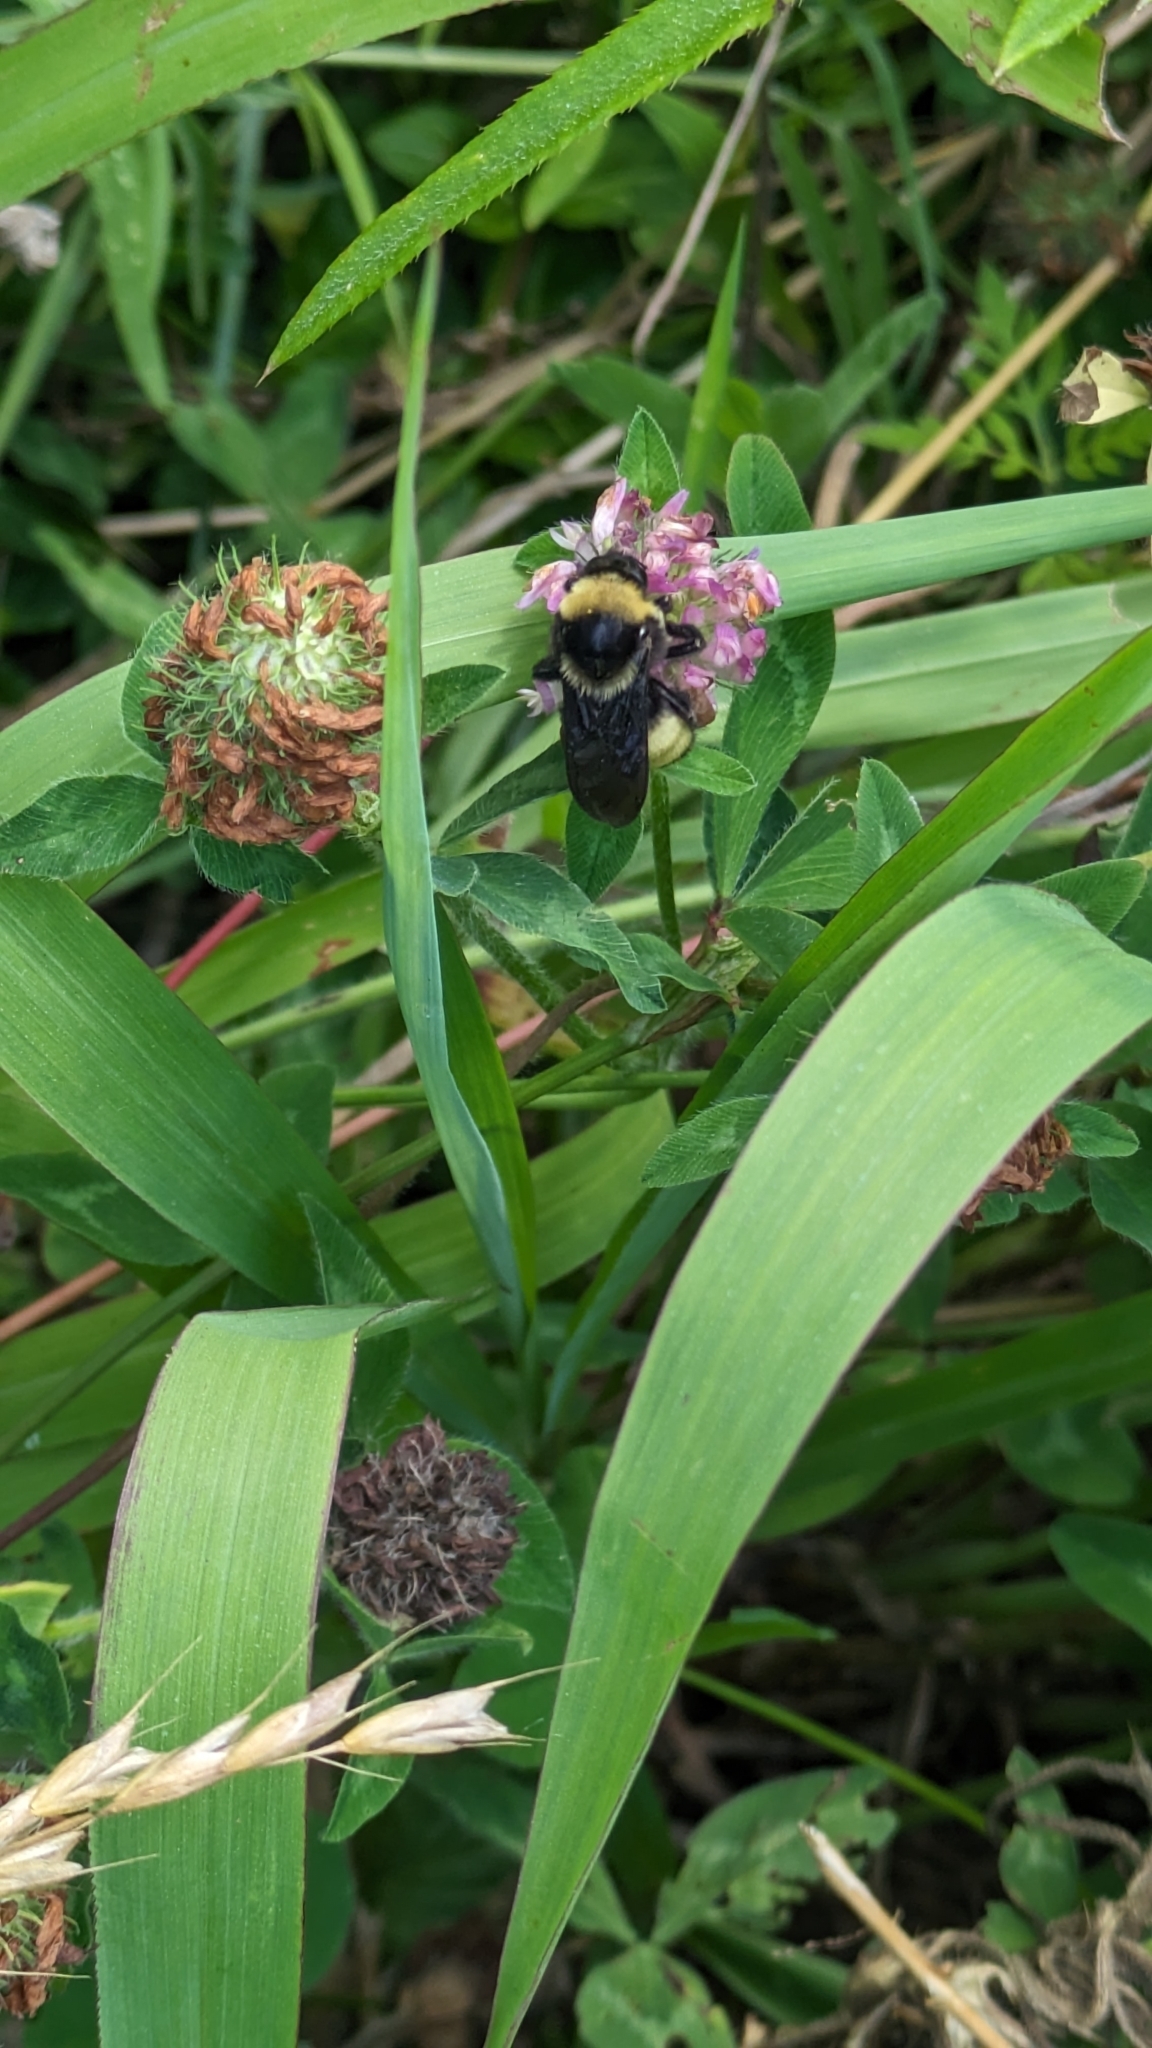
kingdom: Animalia
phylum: Arthropoda
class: Insecta
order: Hymenoptera
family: Apidae
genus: Bombus
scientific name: Bombus pensylvanicus
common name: Bumble bee
